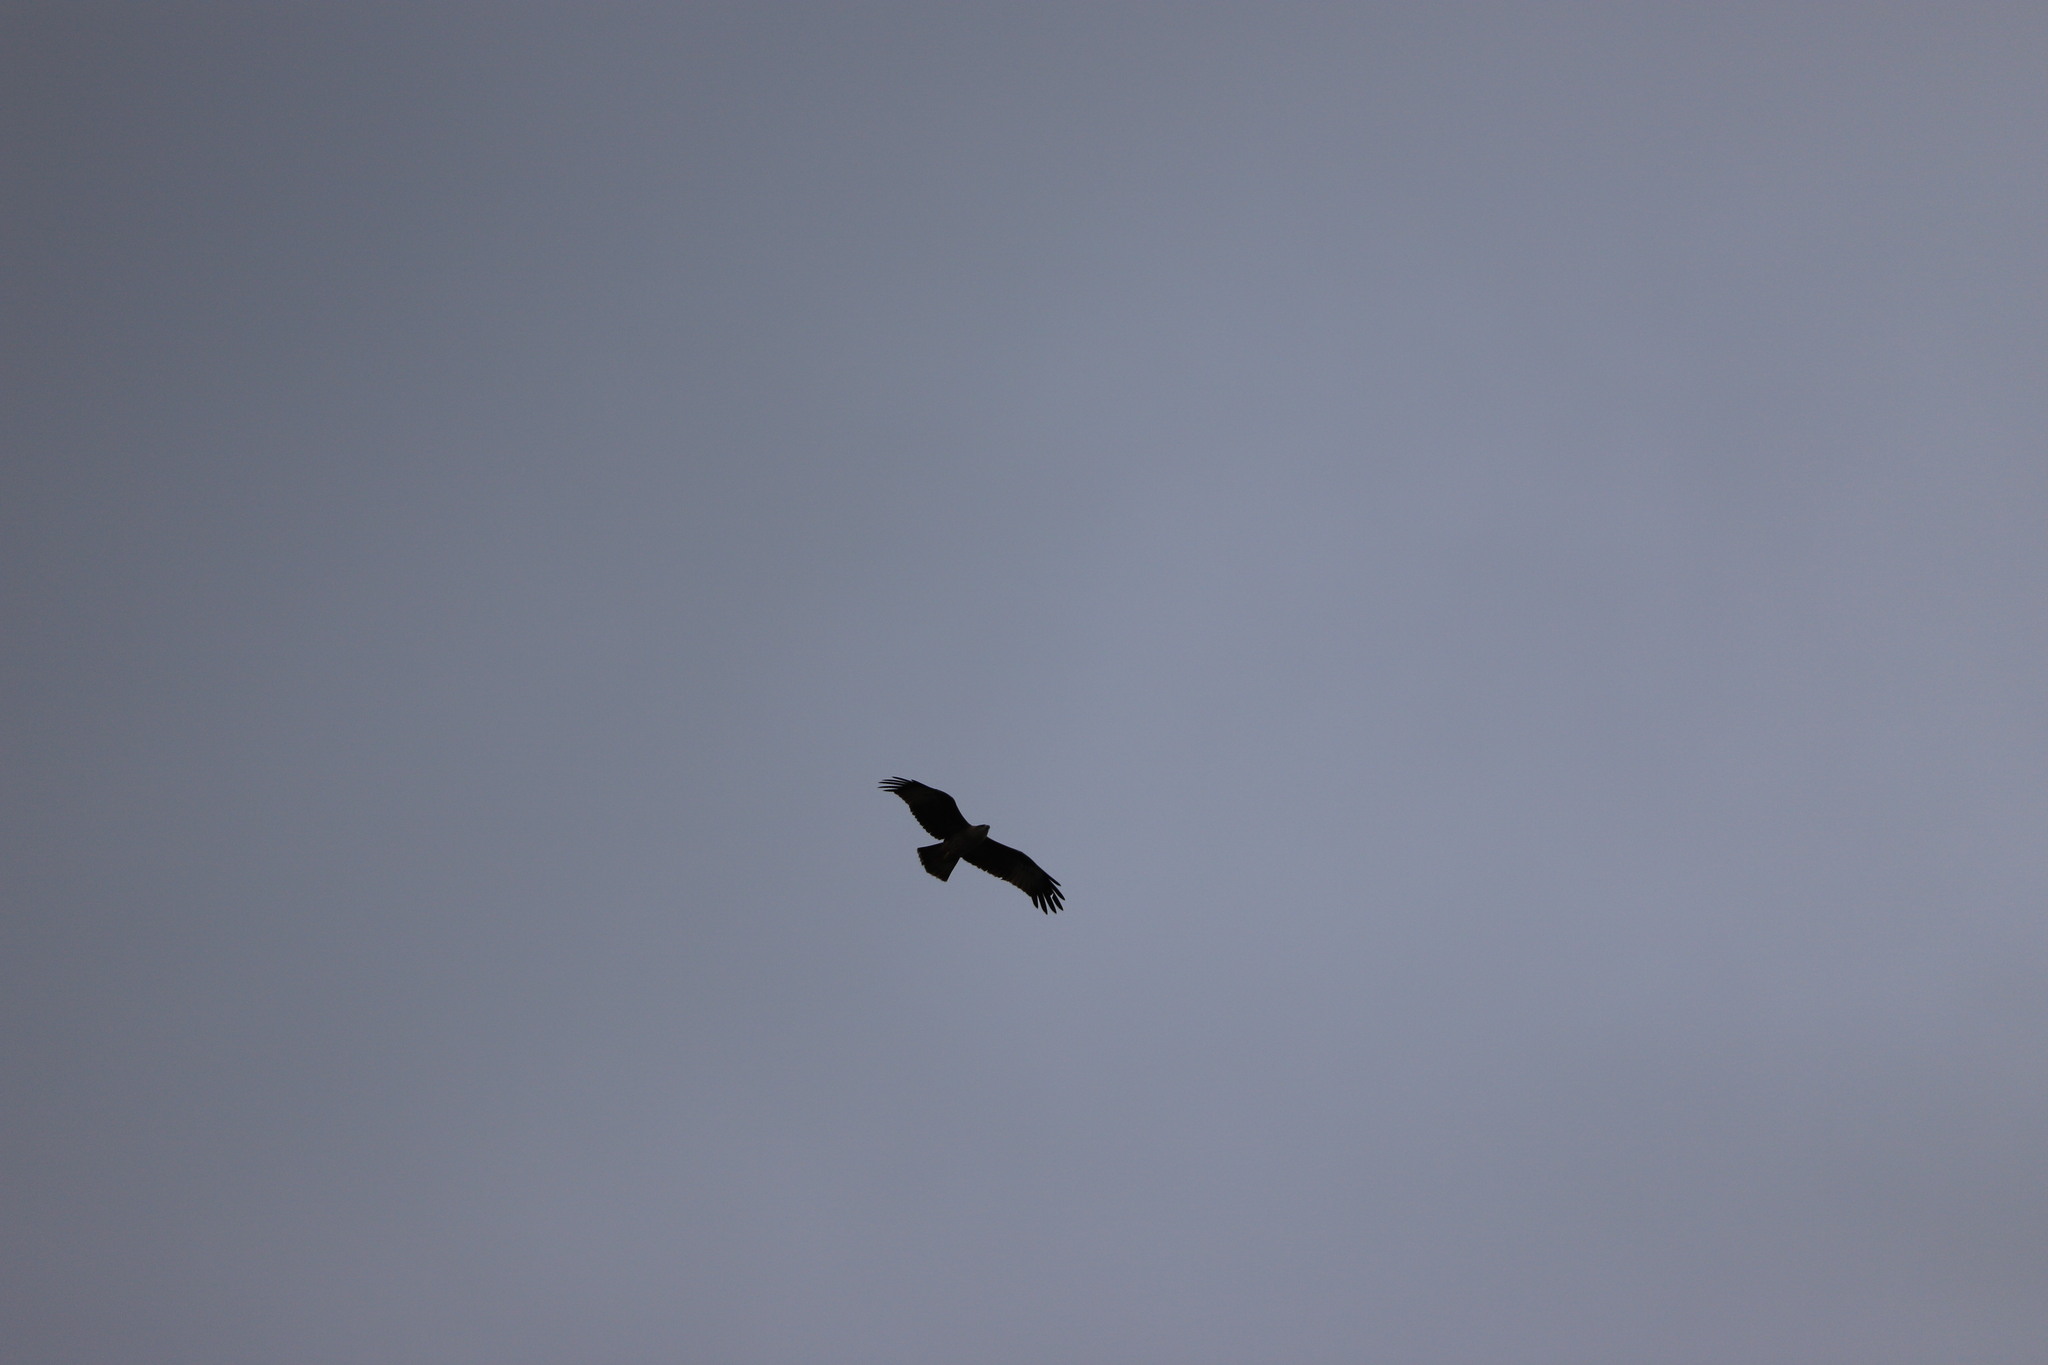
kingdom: Animalia
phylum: Chordata
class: Aves
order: Accipitriformes
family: Accipitridae
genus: Haliastur
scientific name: Haliastur indus
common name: Brahminy kite
